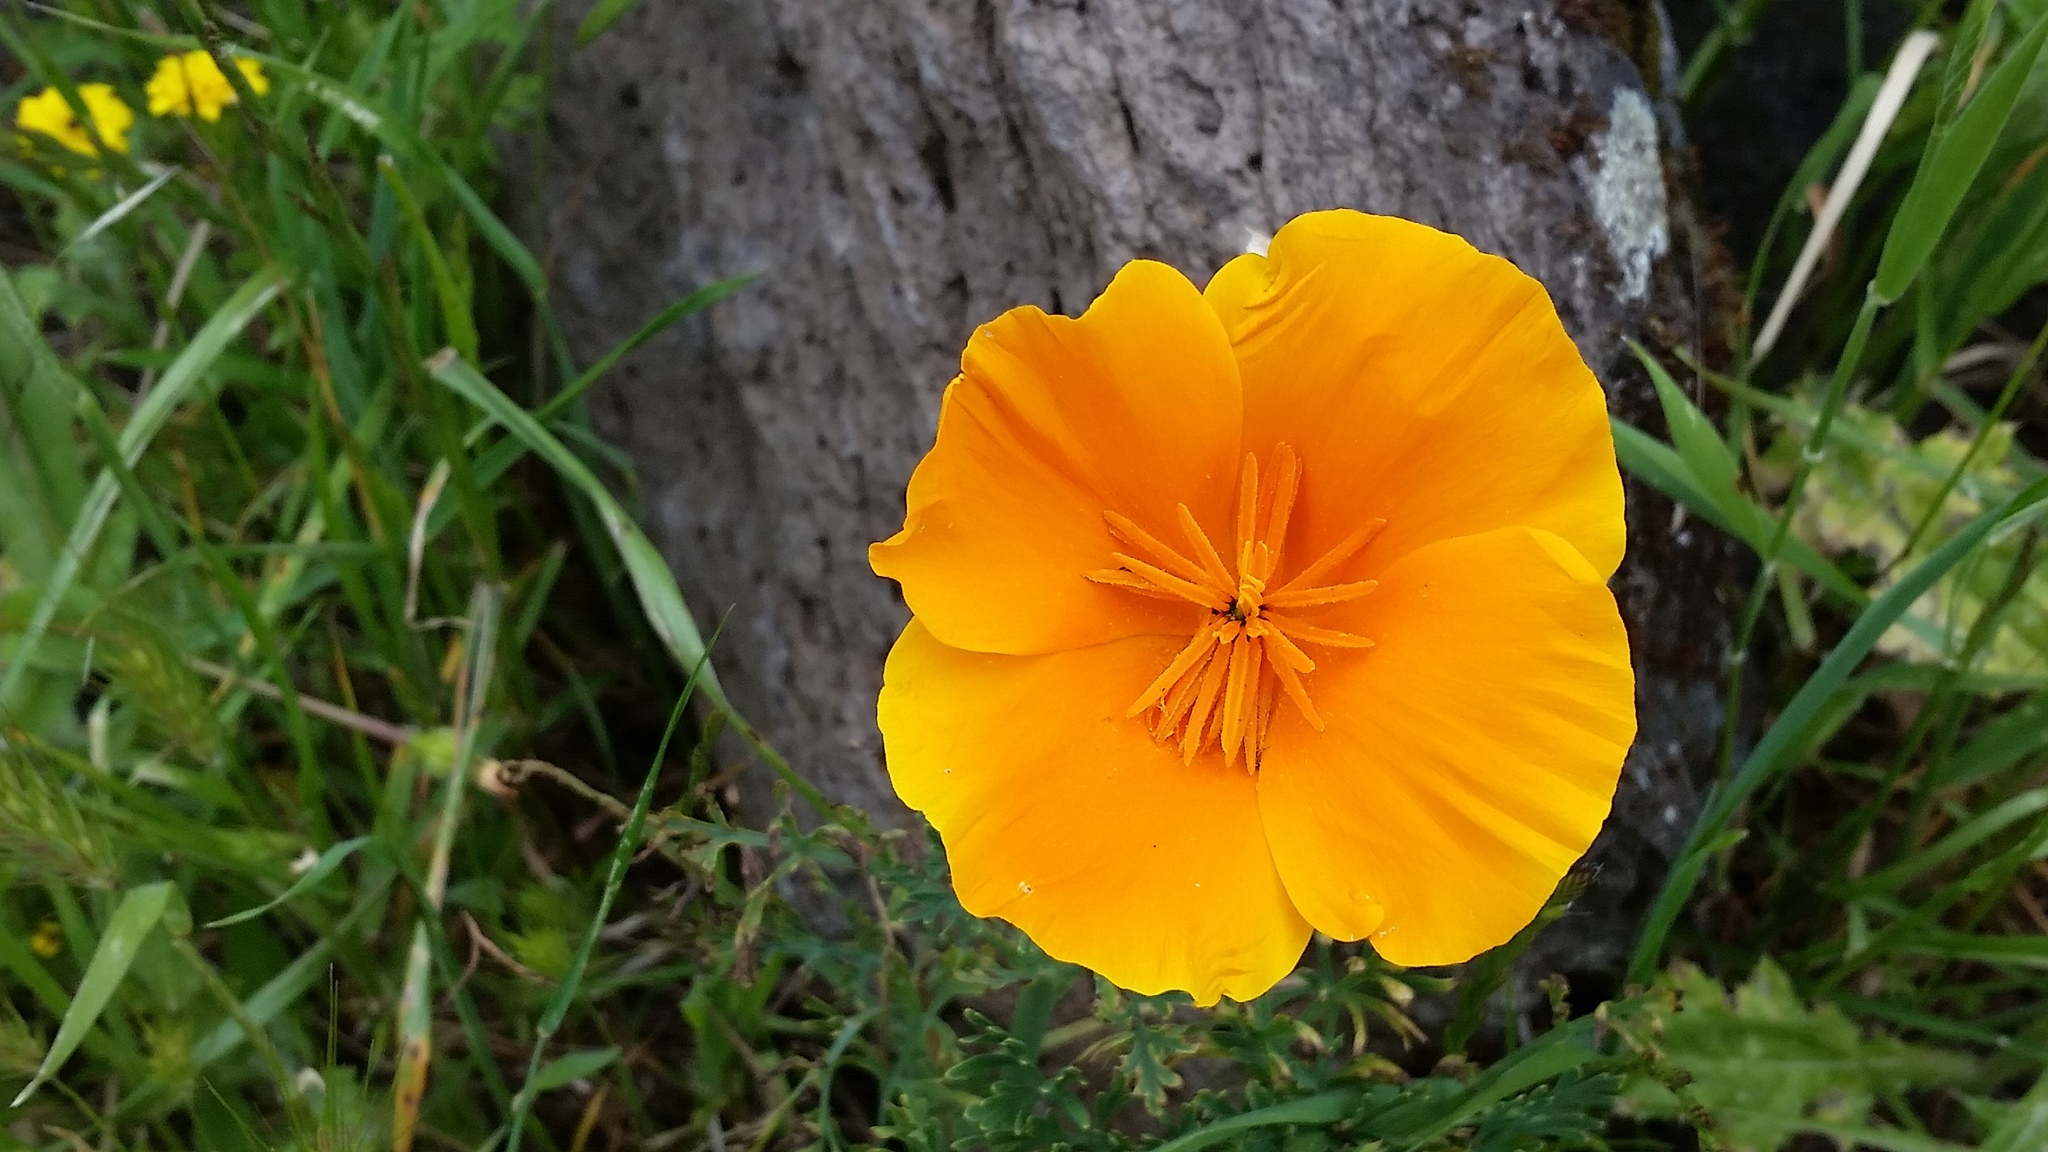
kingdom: Plantae
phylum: Tracheophyta
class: Magnoliopsida
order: Ranunculales
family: Papaveraceae
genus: Eschscholzia
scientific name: Eschscholzia californica
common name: California poppy
